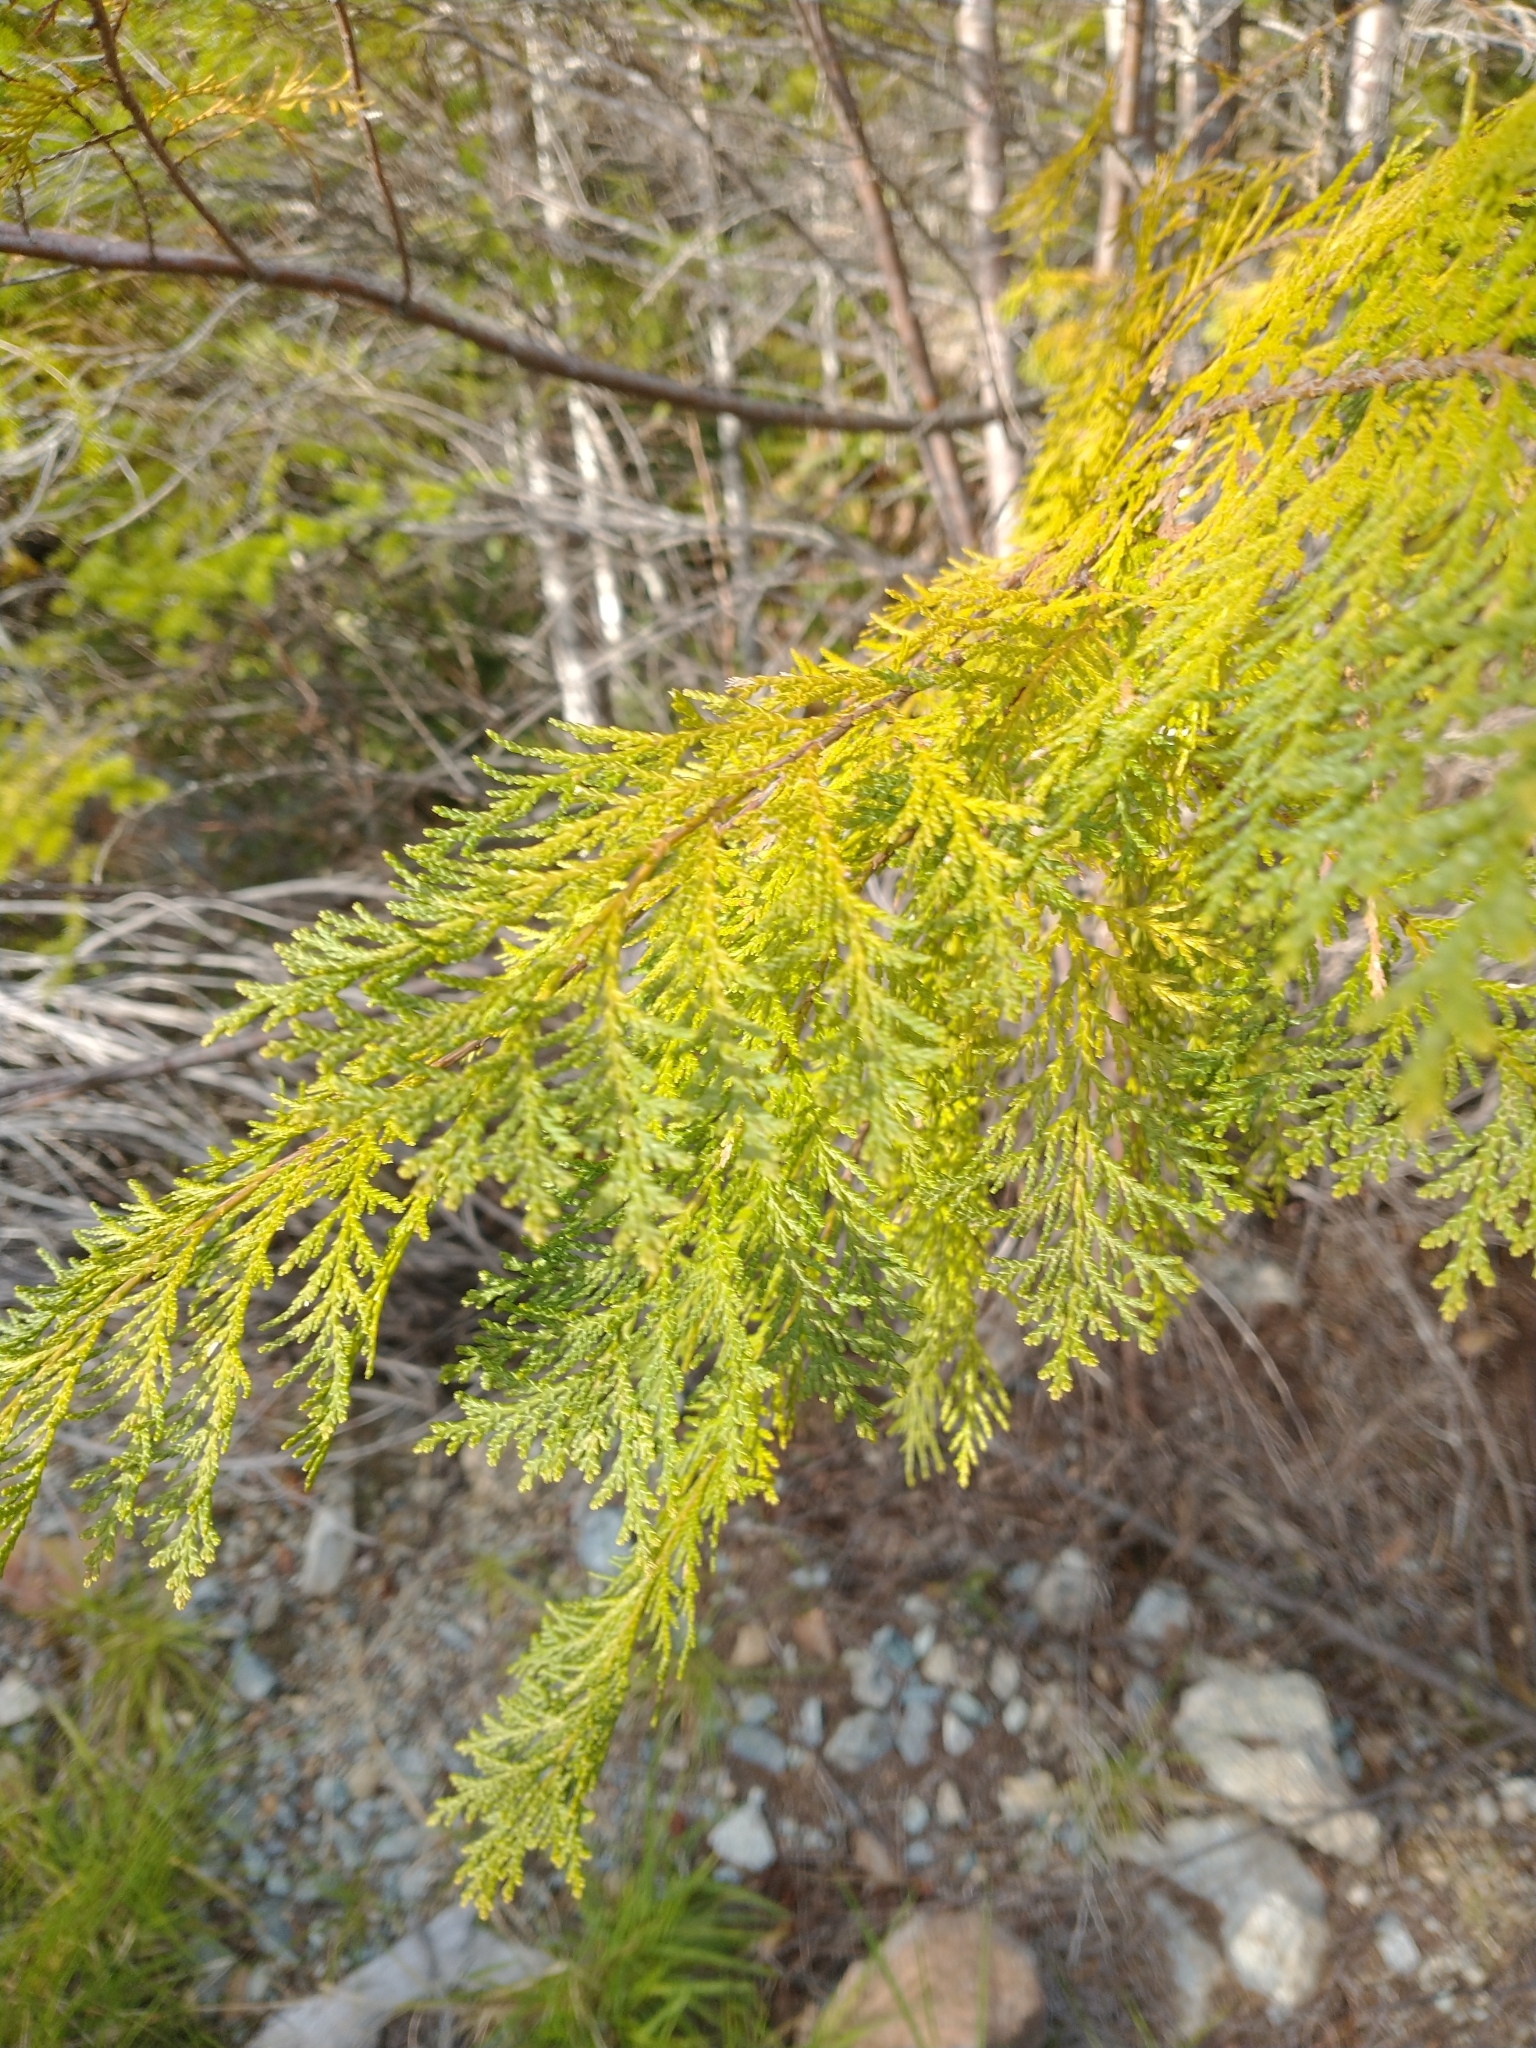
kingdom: Plantae
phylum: Tracheophyta
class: Pinopsida
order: Pinales
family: Cupressaceae
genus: Chamaecyparis
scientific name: Chamaecyparis lawsoniana
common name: Lawson's cypress
